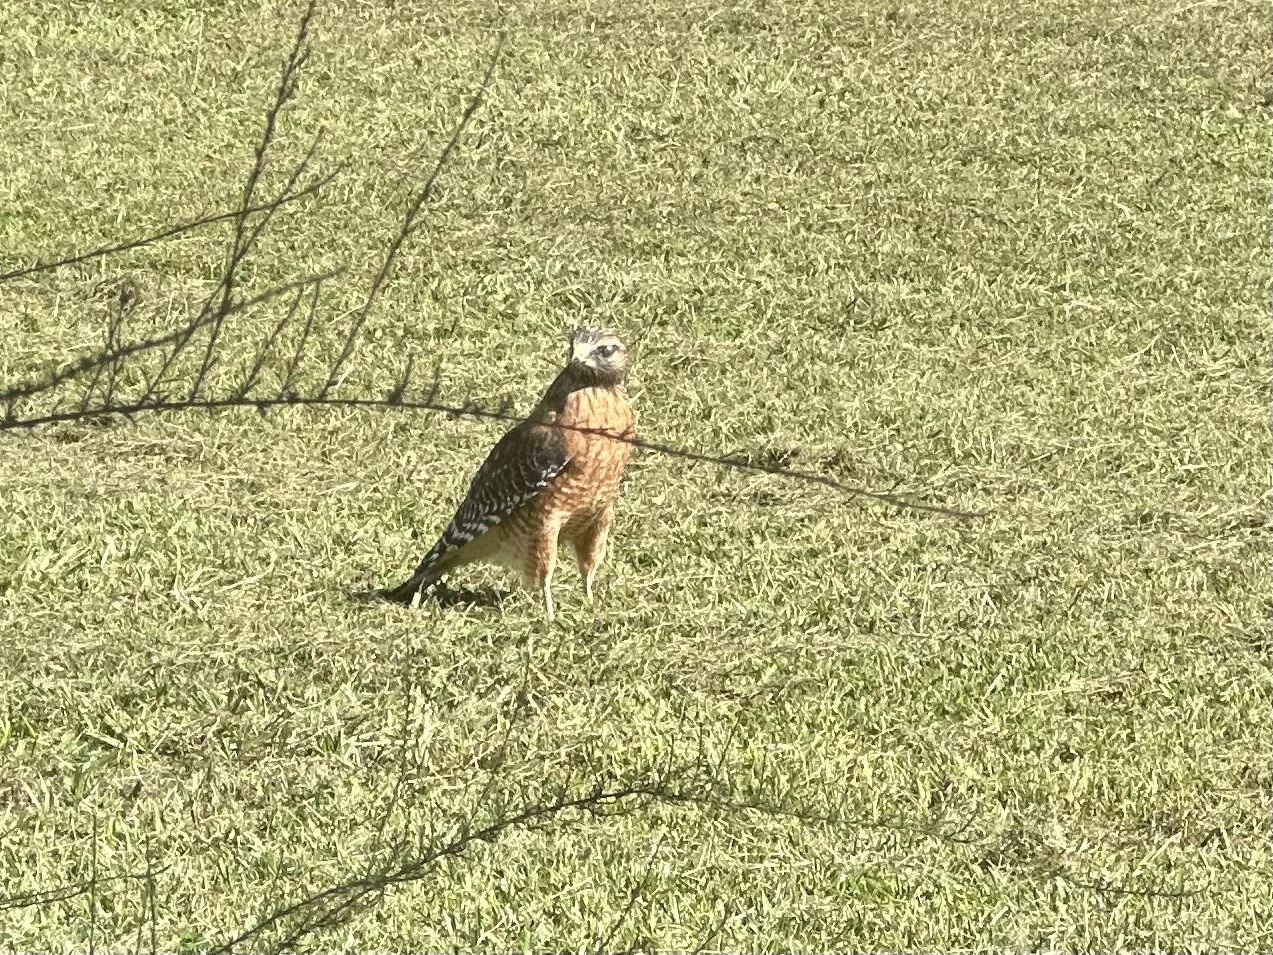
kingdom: Animalia
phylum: Chordata
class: Aves
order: Accipitriformes
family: Accipitridae
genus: Buteo
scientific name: Buteo lineatus
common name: Red-shouldered hawk
